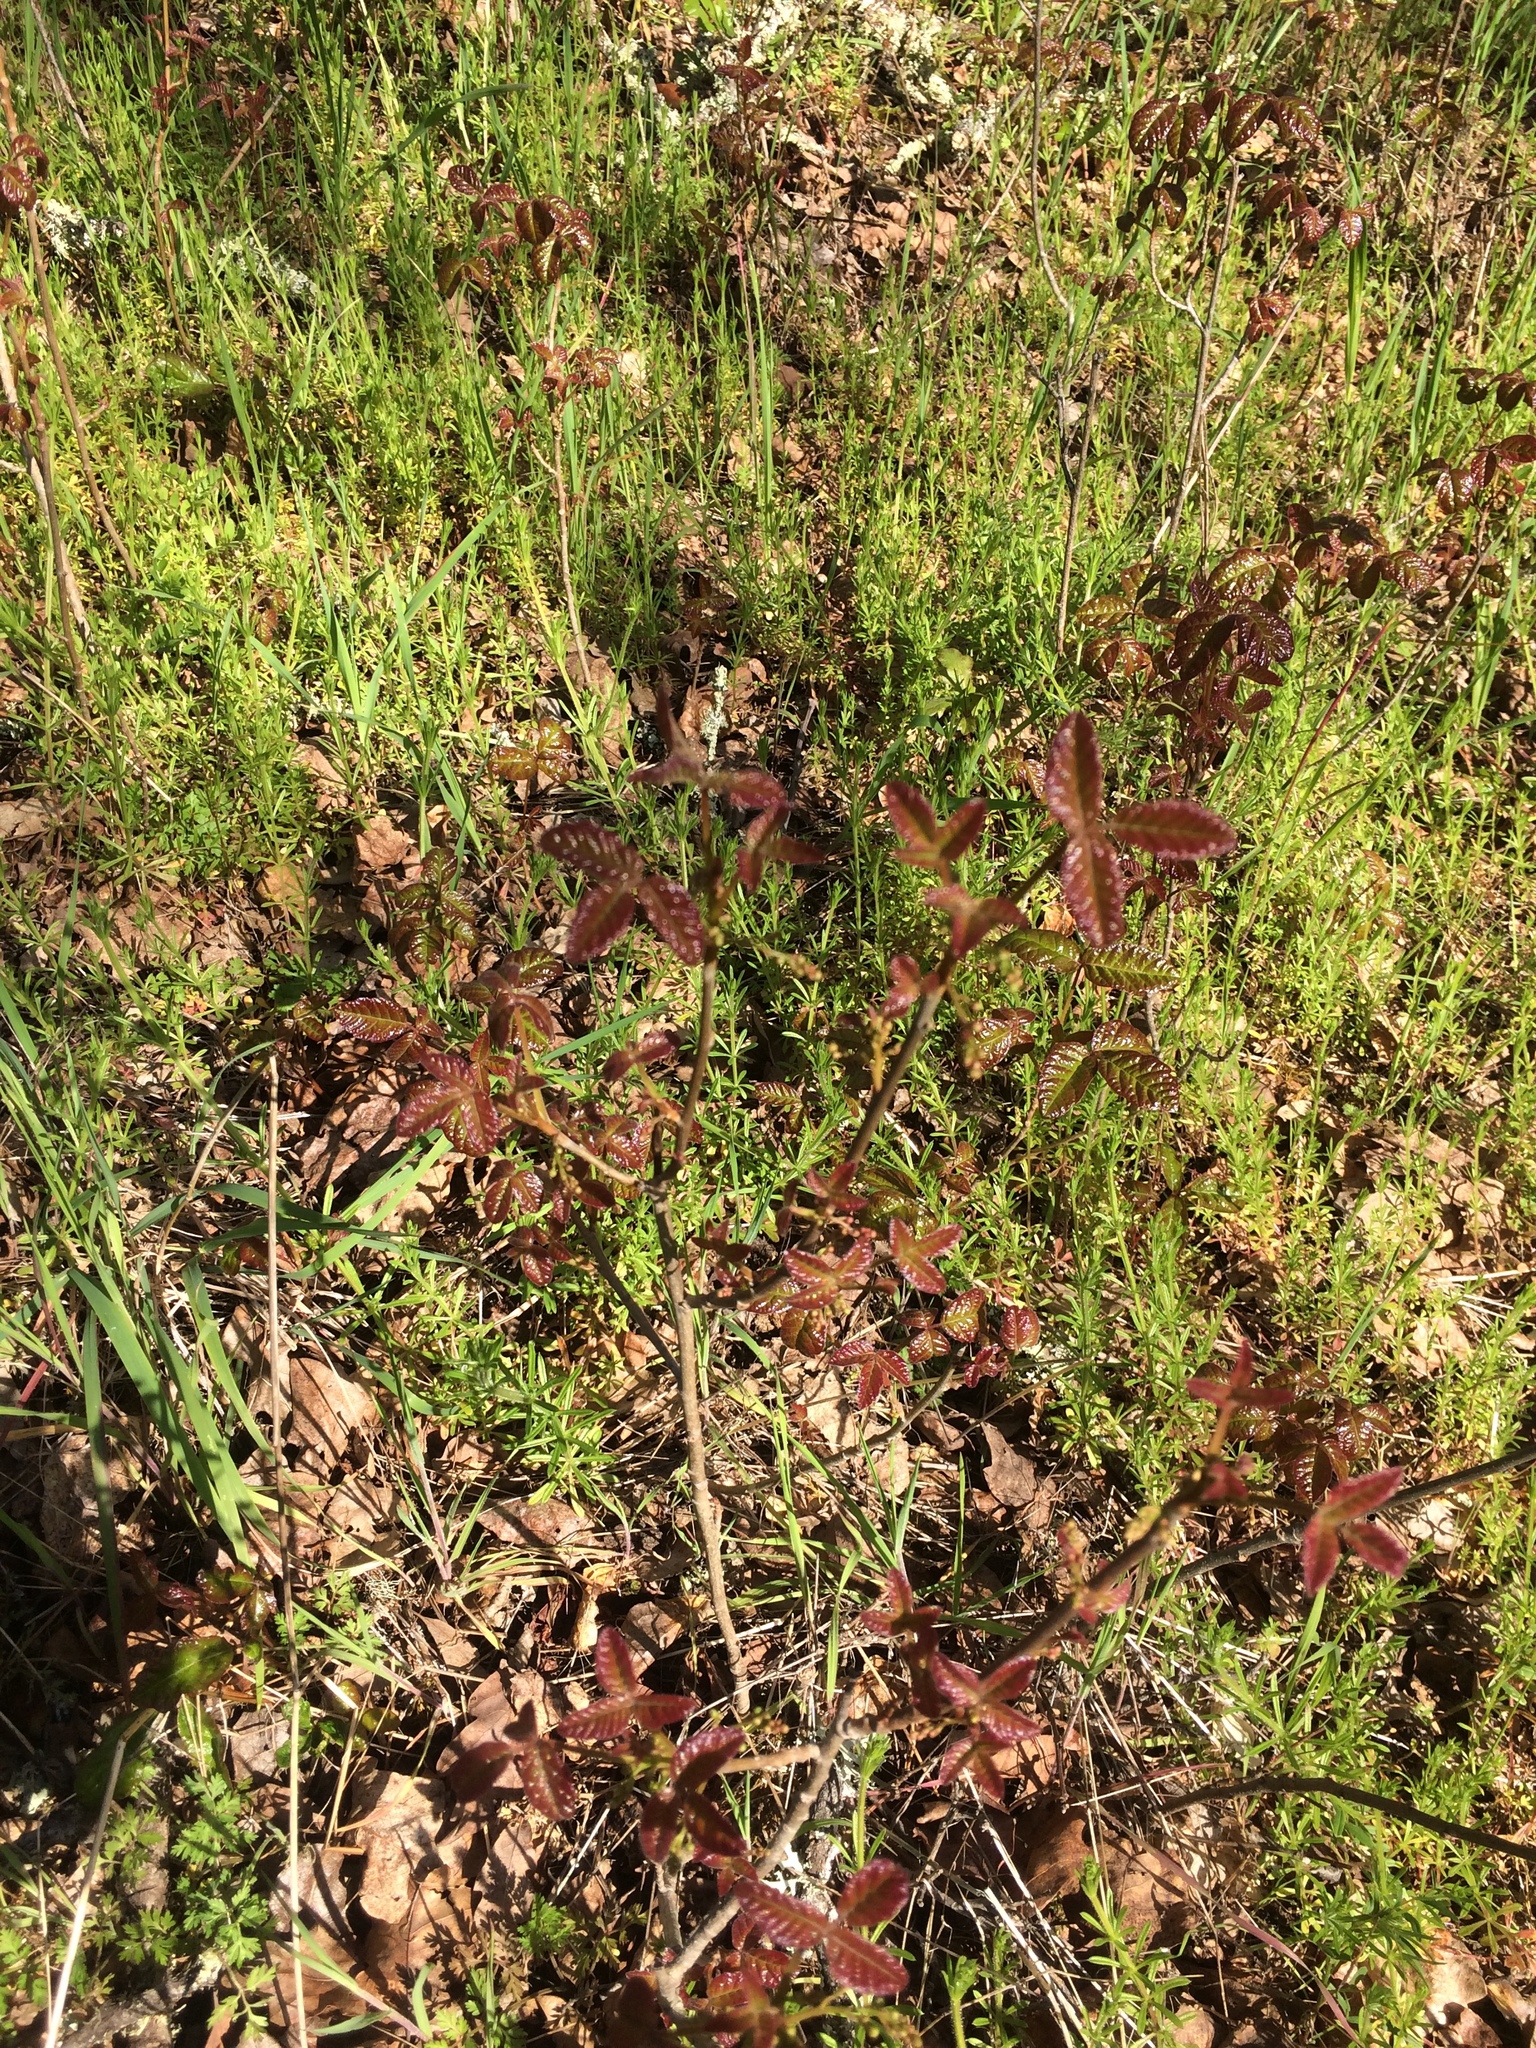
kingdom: Plantae
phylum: Tracheophyta
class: Magnoliopsida
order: Sapindales
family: Anacardiaceae
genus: Toxicodendron
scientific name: Toxicodendron diversilobum
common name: Pacific poison-oak
